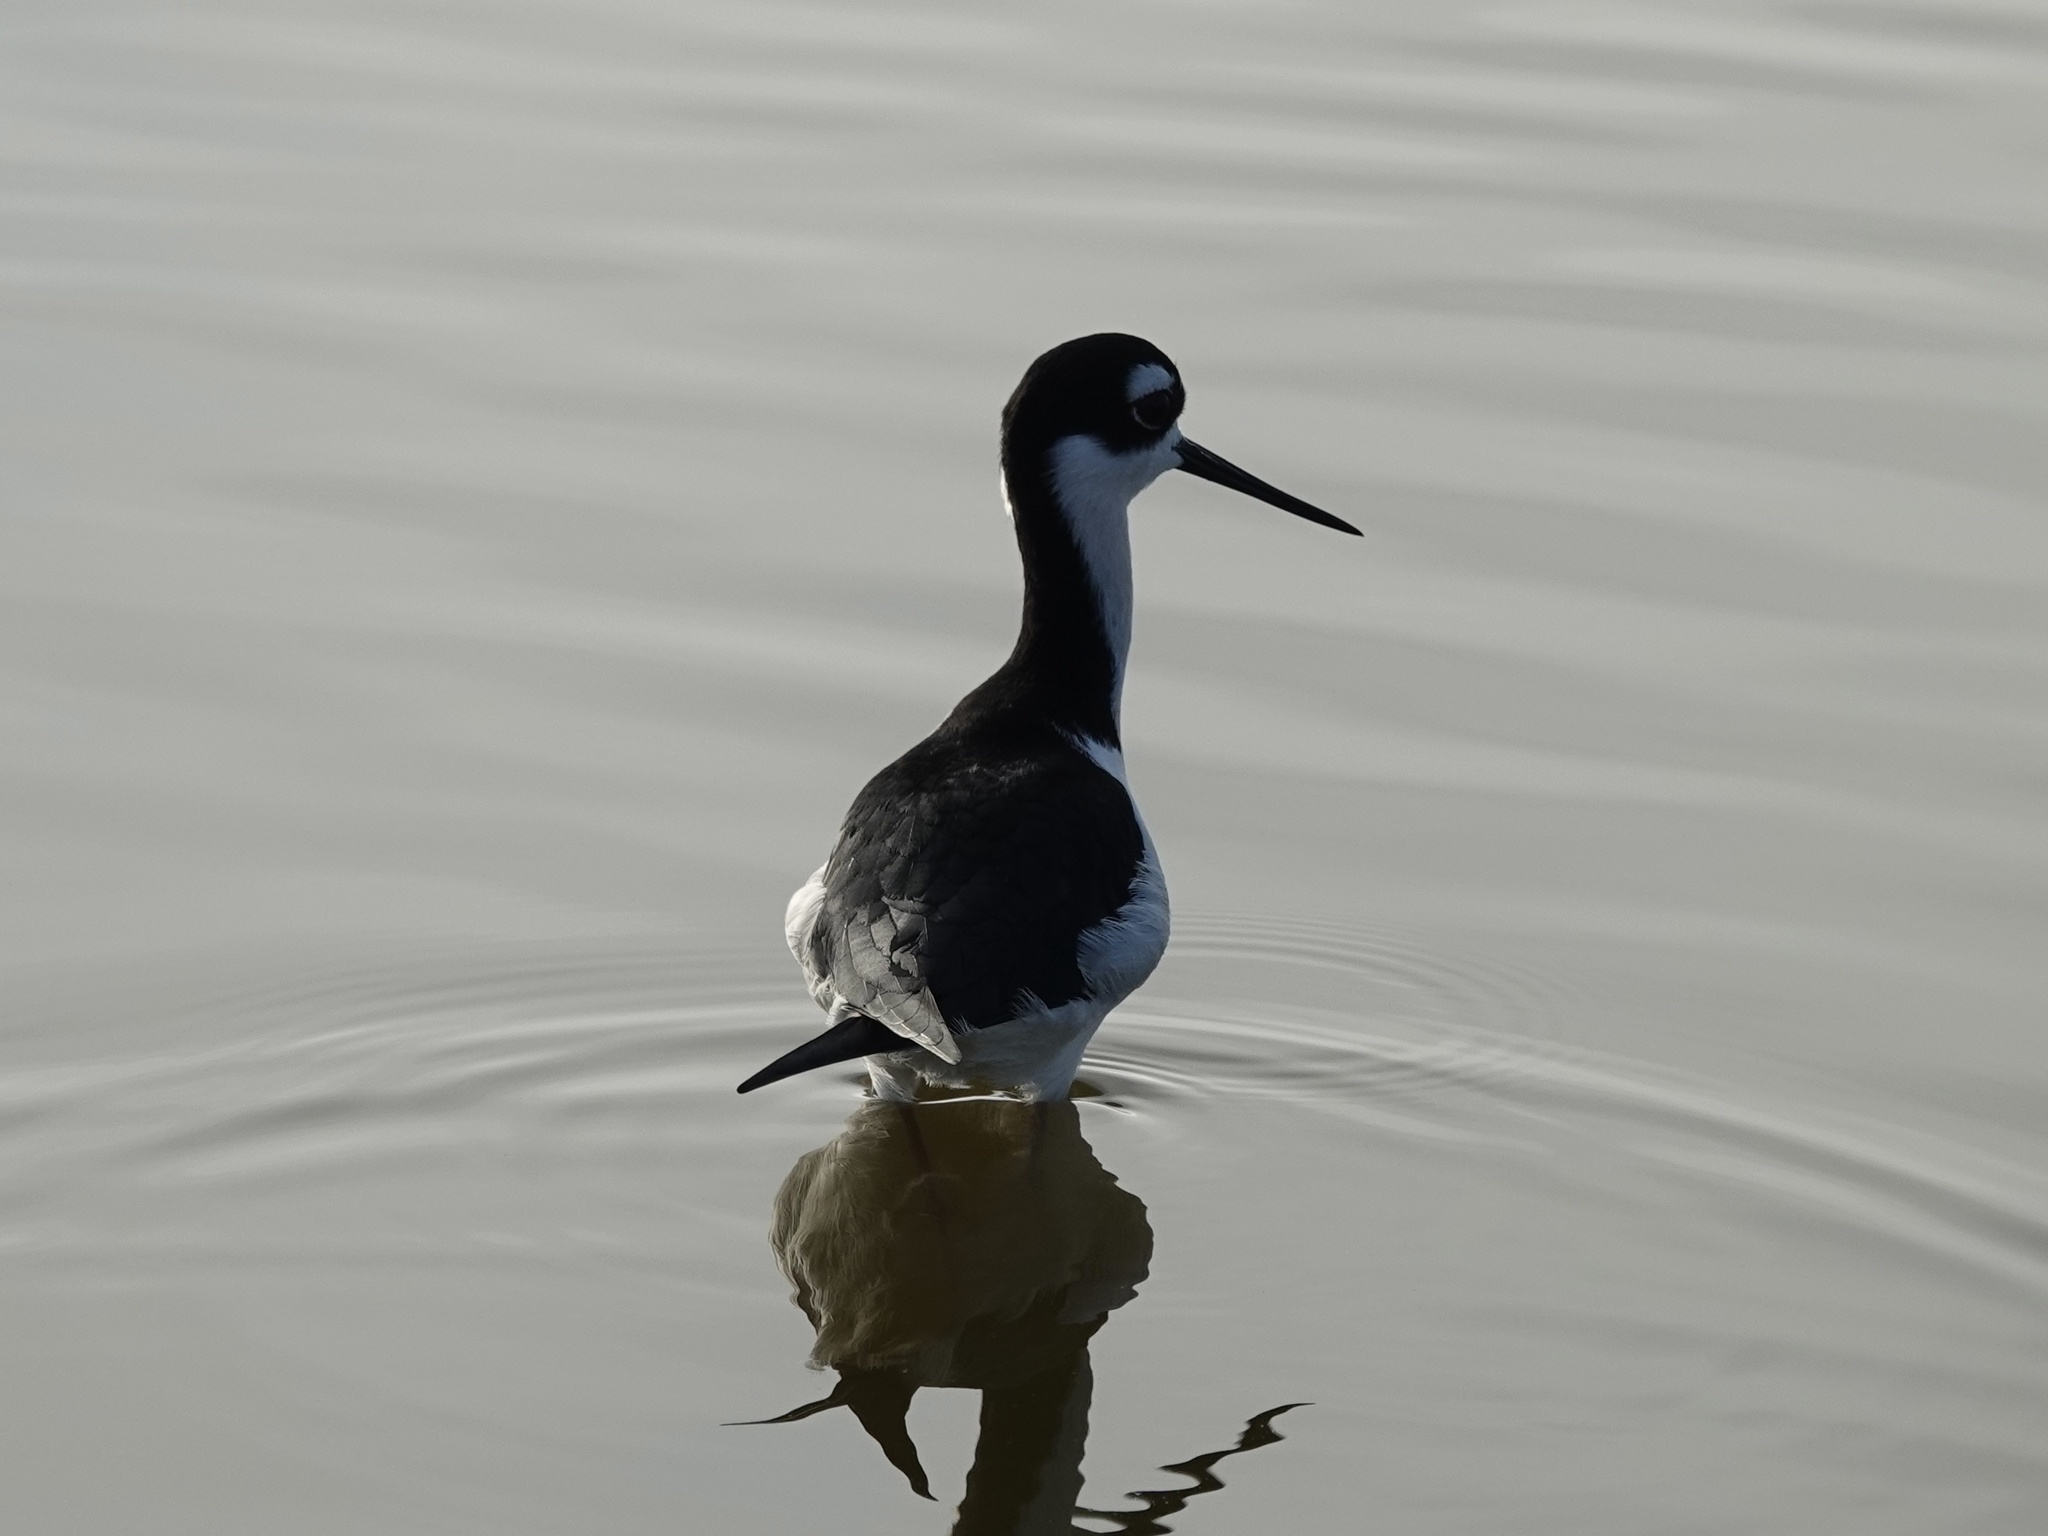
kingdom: Animalia
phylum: Chordata
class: Aves
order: Charadriiformes
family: Recurvirostridae
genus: Himantopus
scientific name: Himantopus mexicanus
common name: Black-necked stilt
